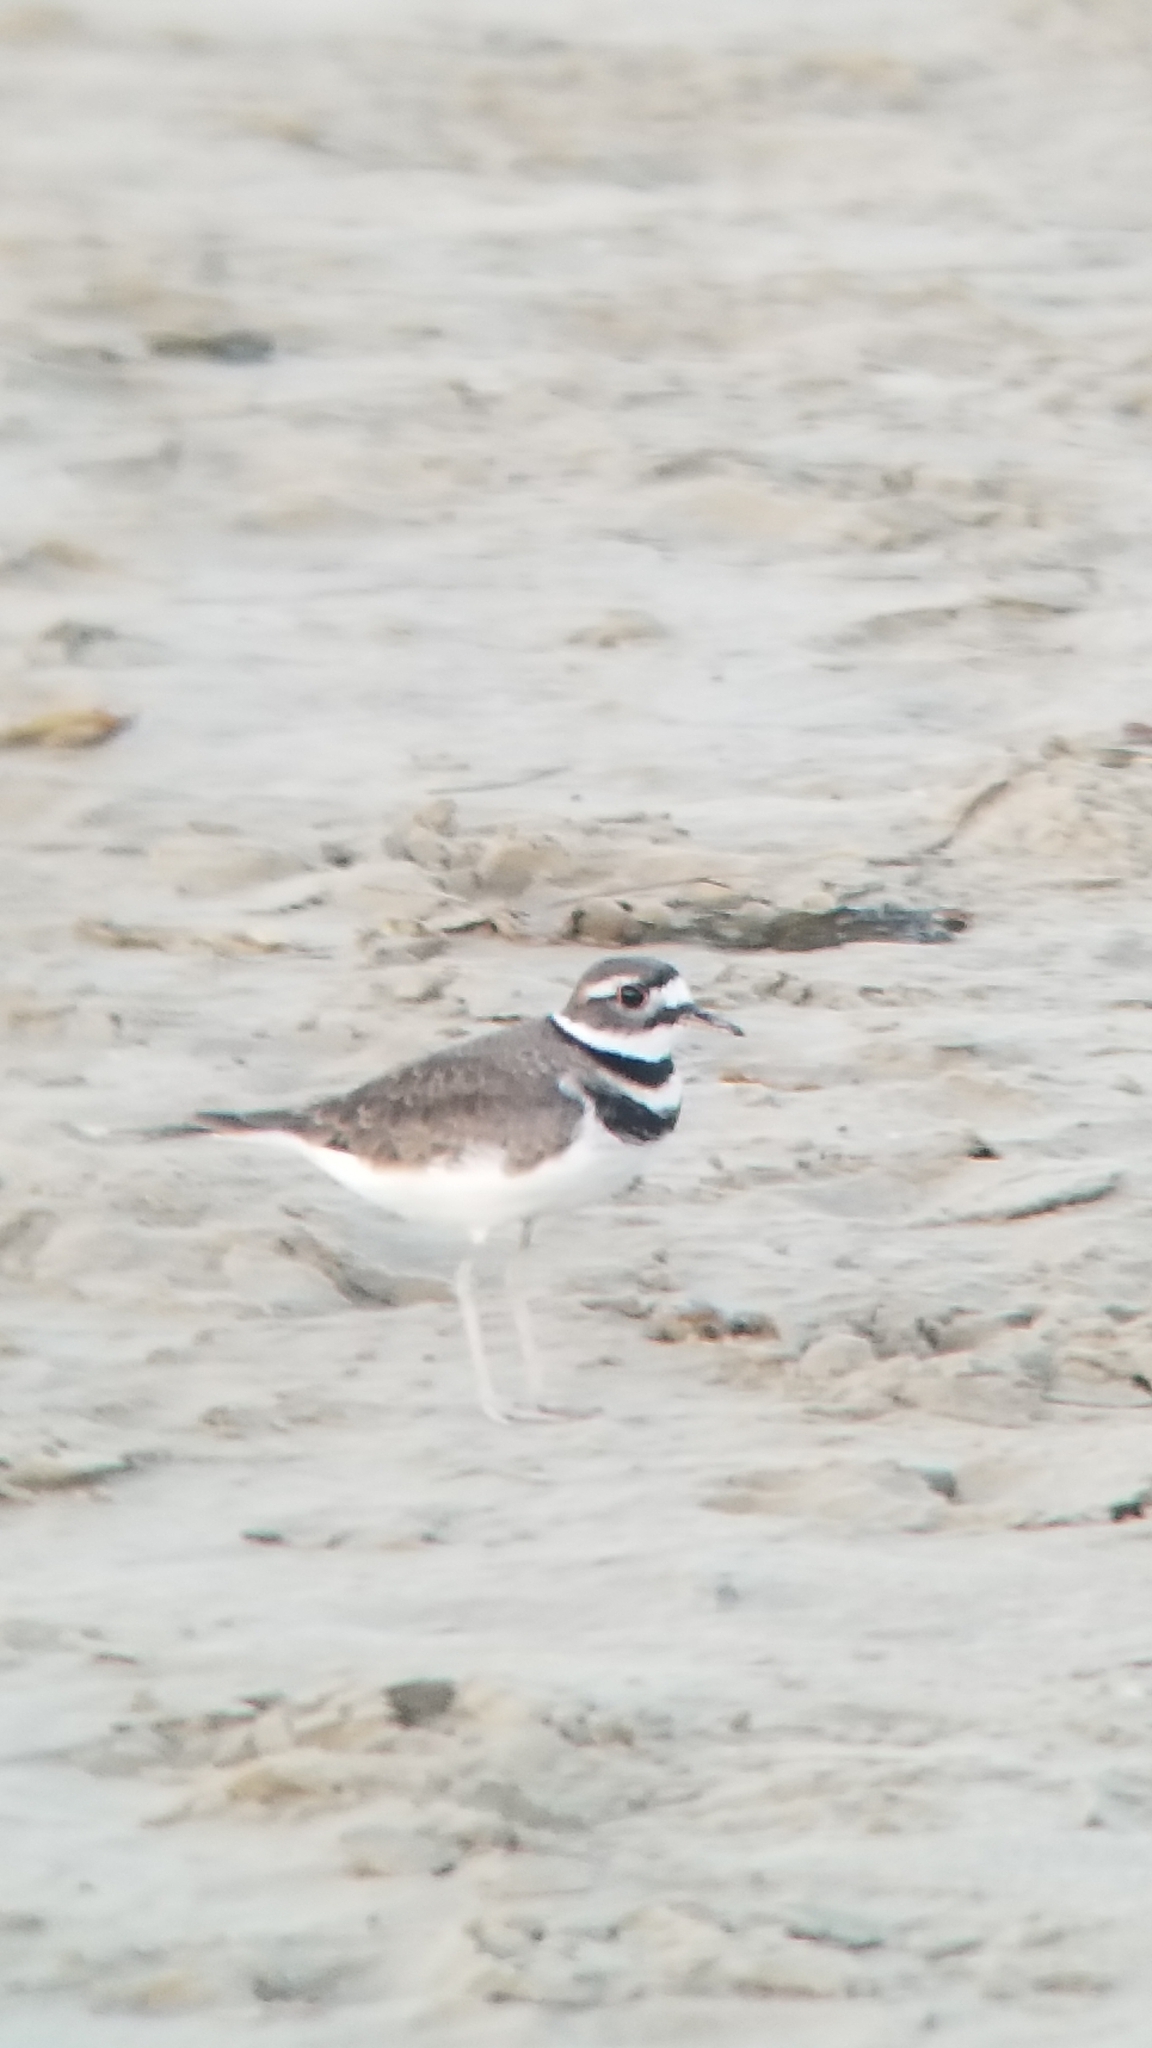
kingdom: Animalia
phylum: Chordata
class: Aves
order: Charadriiformes
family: Charadriidae
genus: Charadrius
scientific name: Charadrius vociferus
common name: Killdeer
